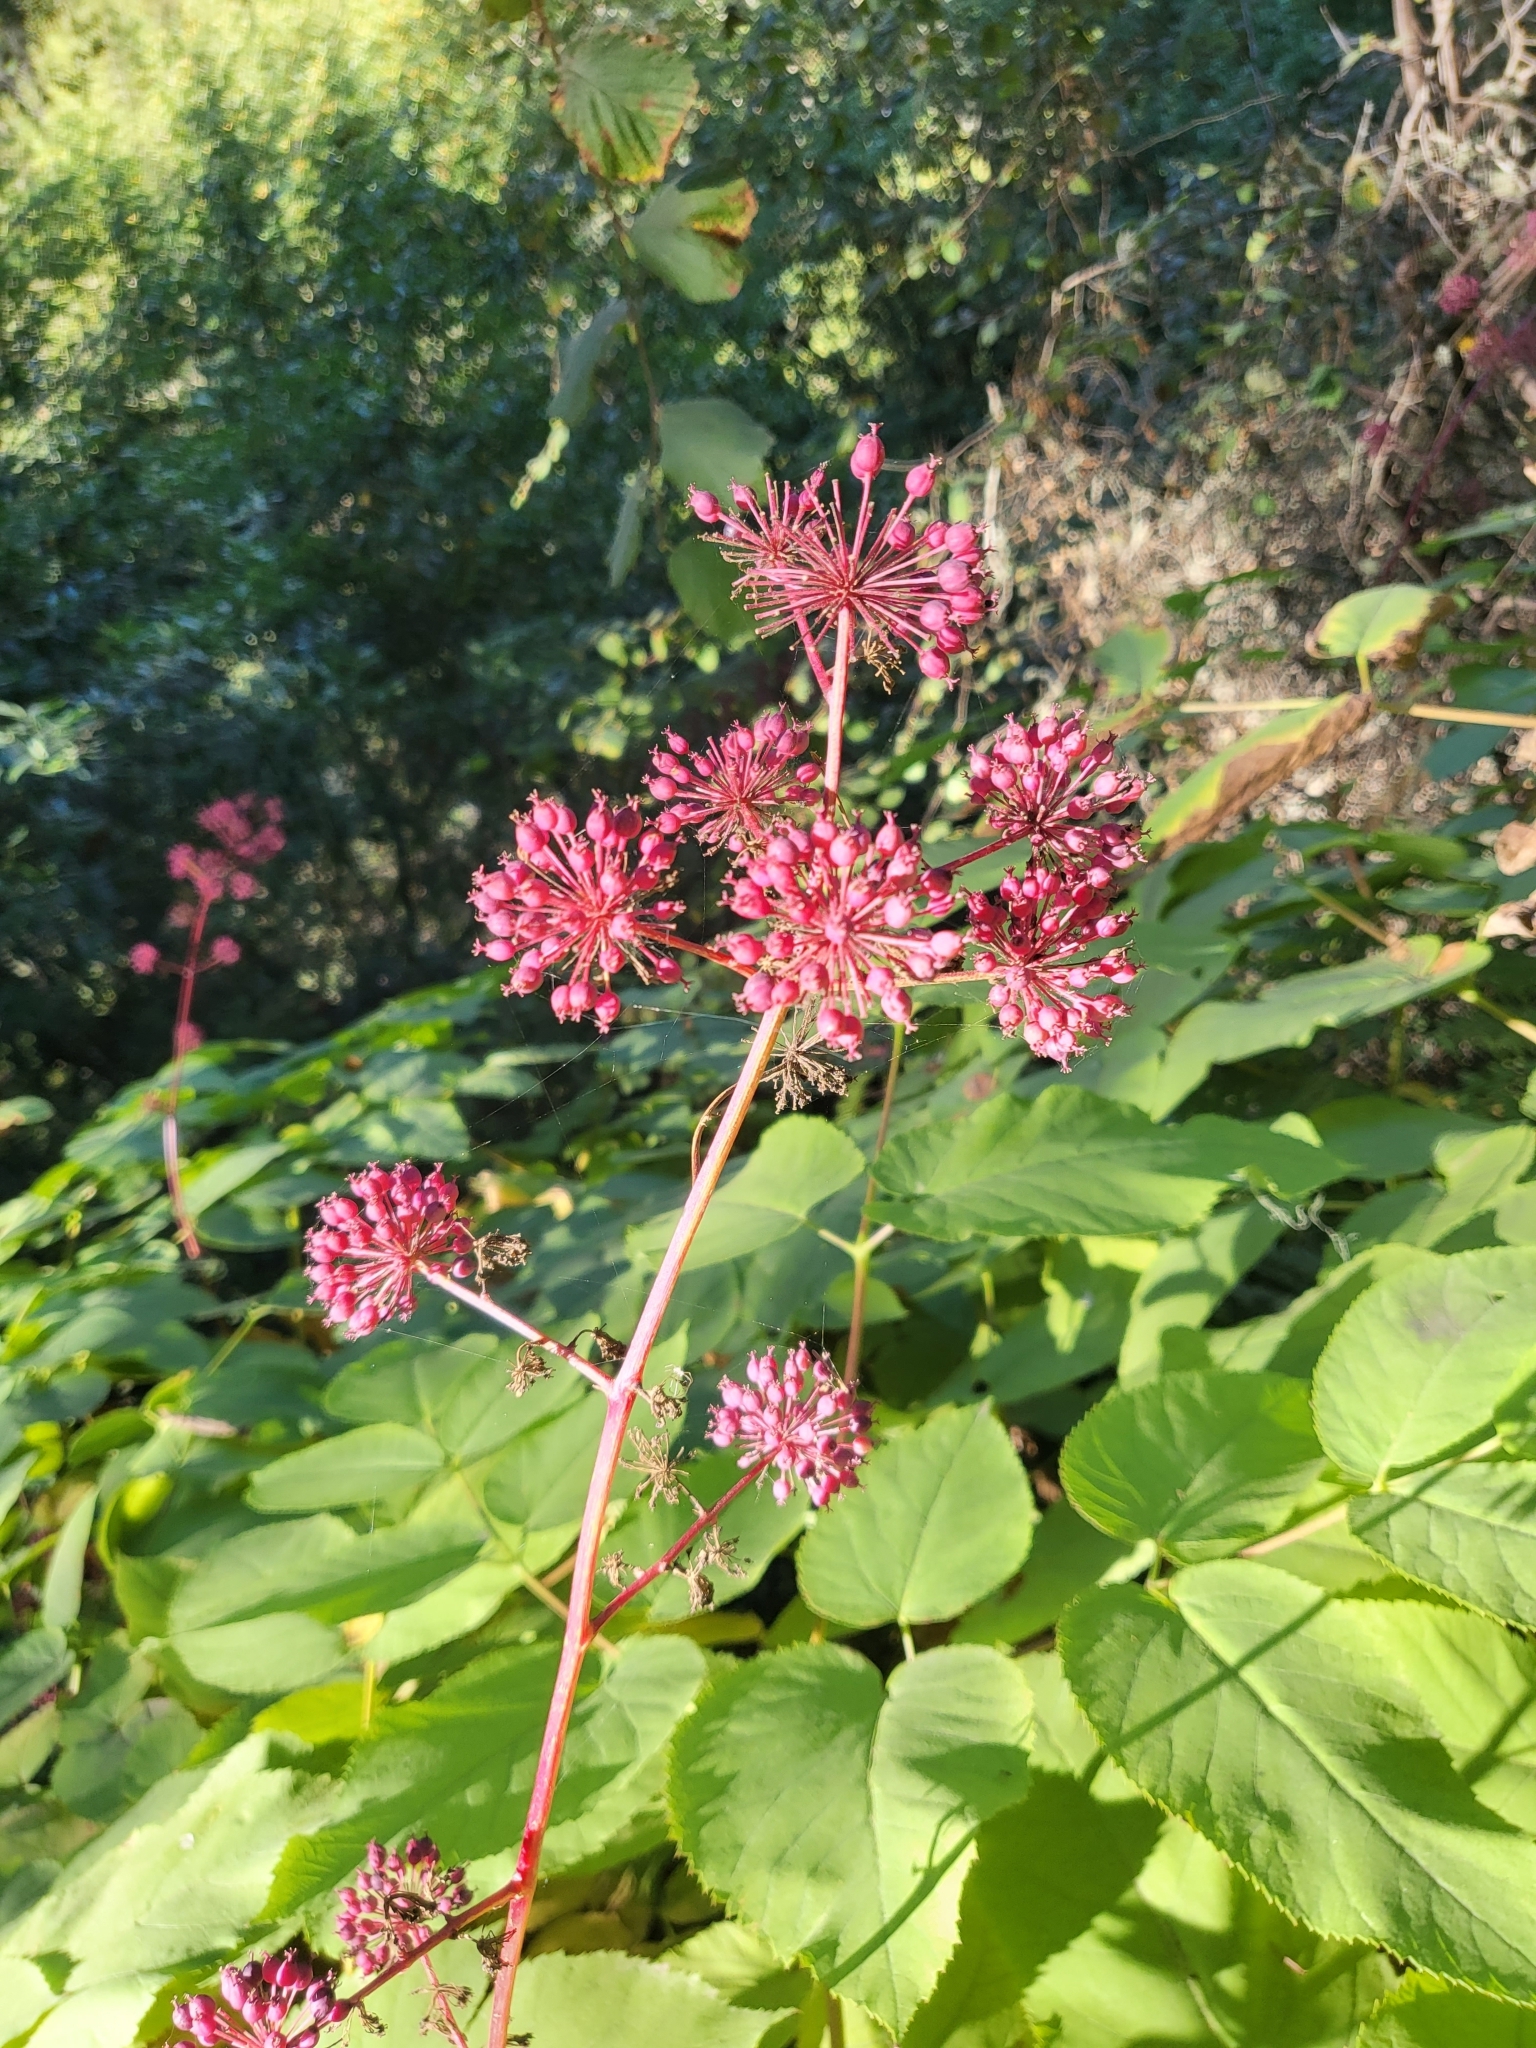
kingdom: Plantae
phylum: Tracheophyta
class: Magnoliopsida
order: Apiales
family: Araliaceae
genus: Aralia
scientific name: Aralia californica
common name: California-ginseng
